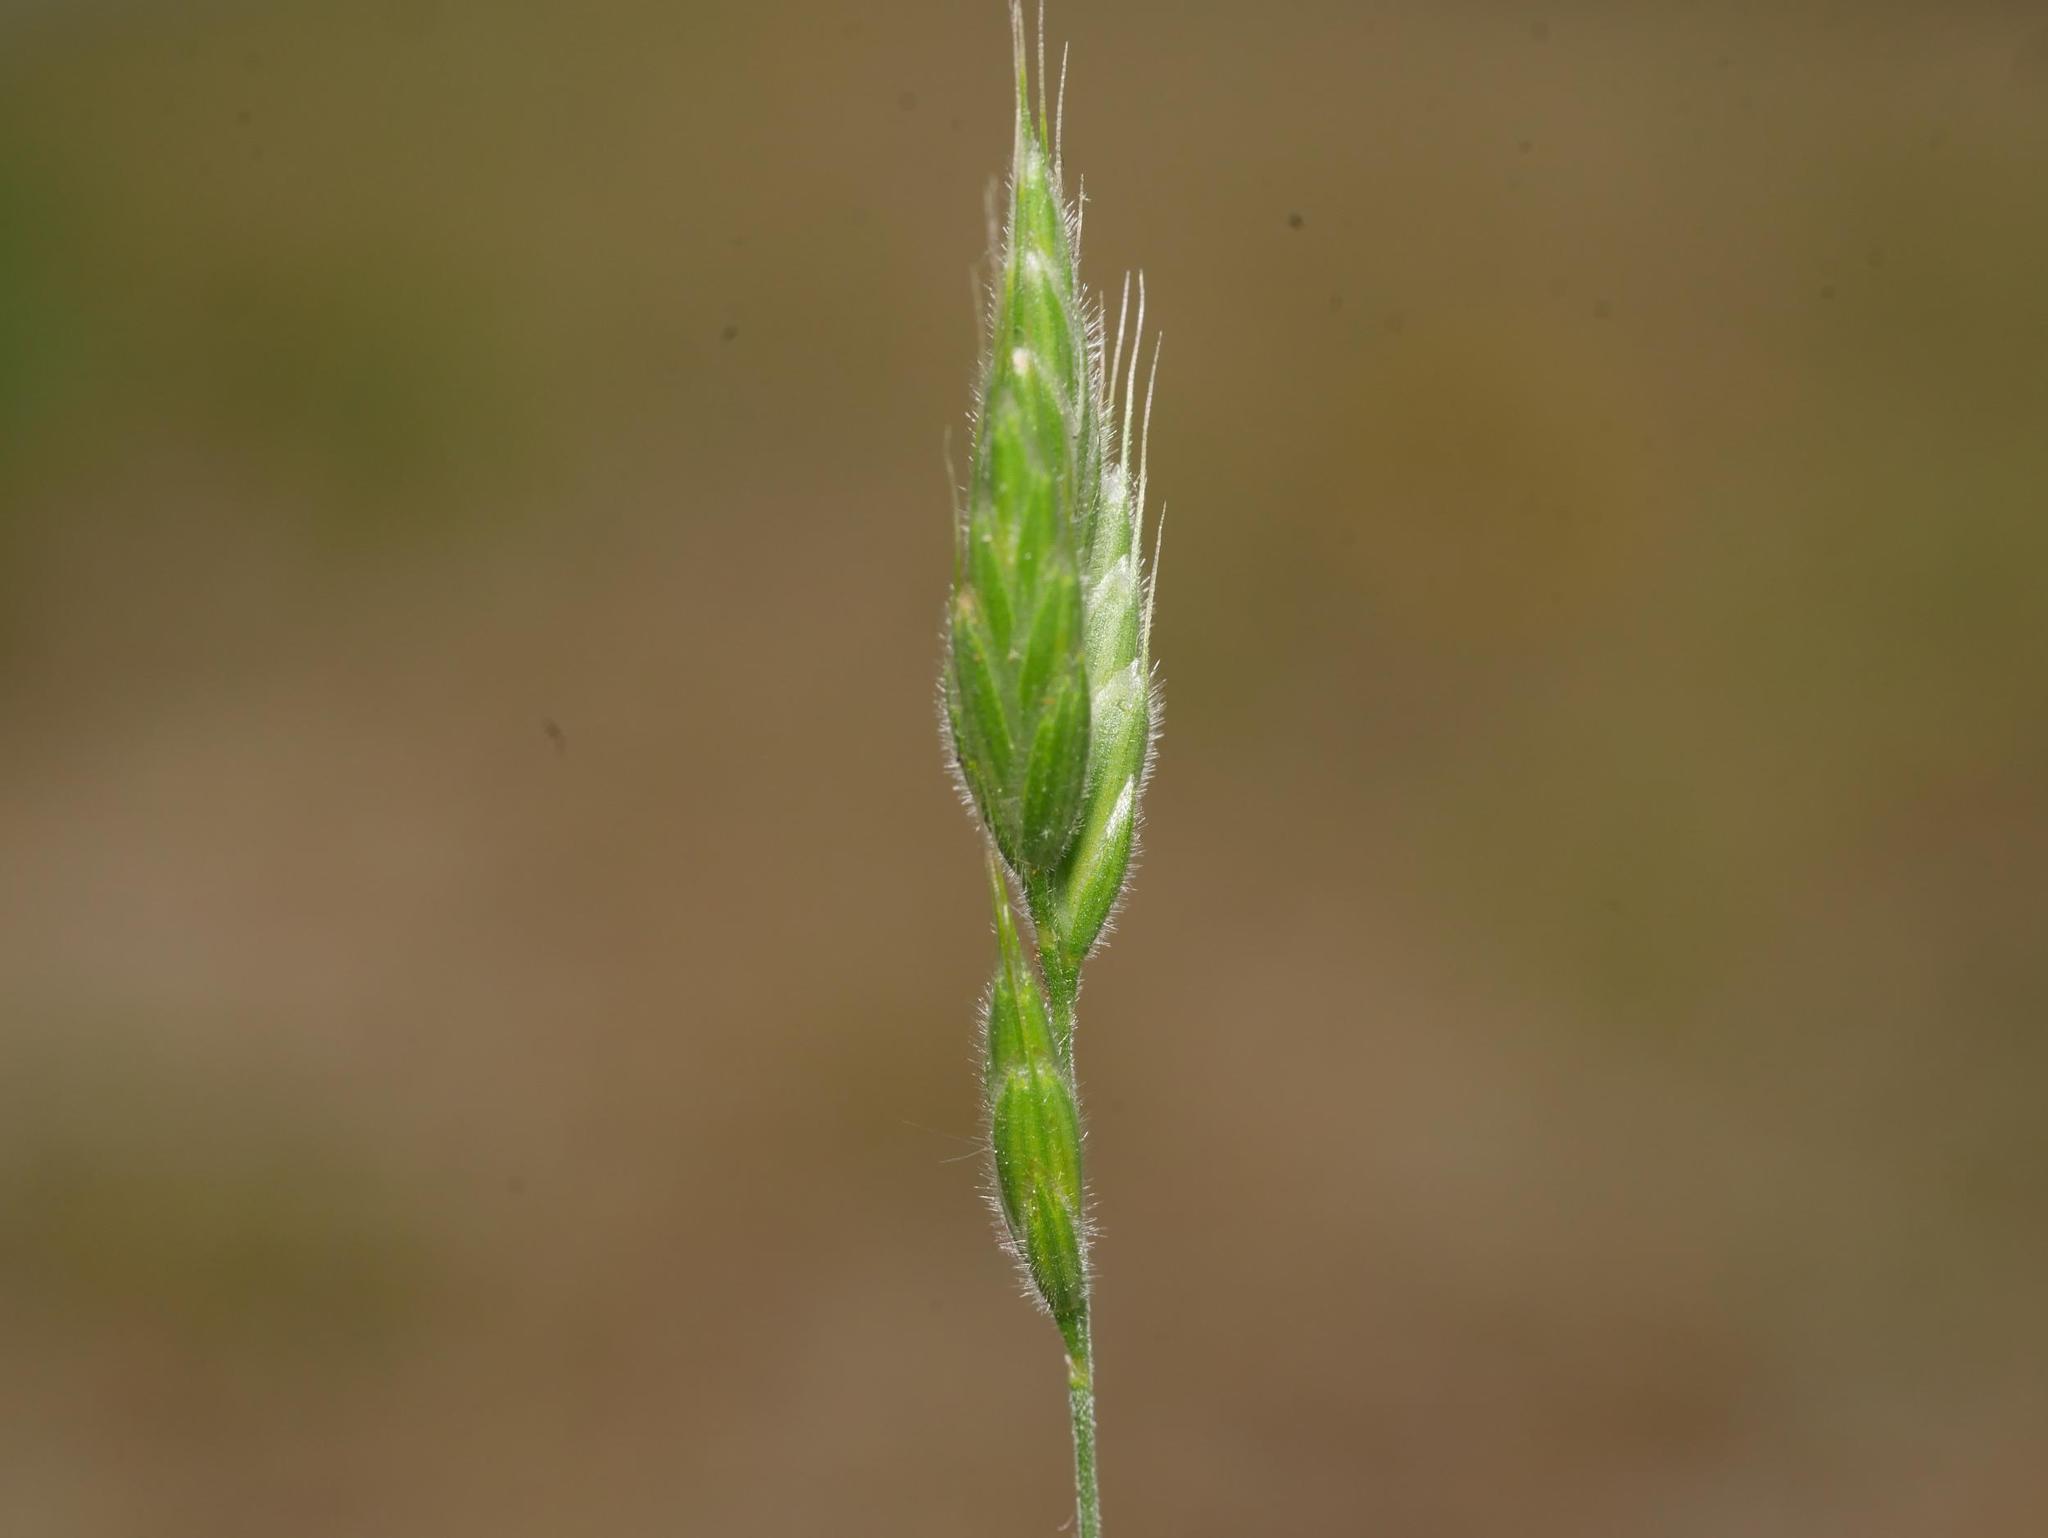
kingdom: Plantae
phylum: Tracheophyta
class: Liliopsida
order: Poales
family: Poaceae
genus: Bromus
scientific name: Bromus hordeaceus
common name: Soft brome
